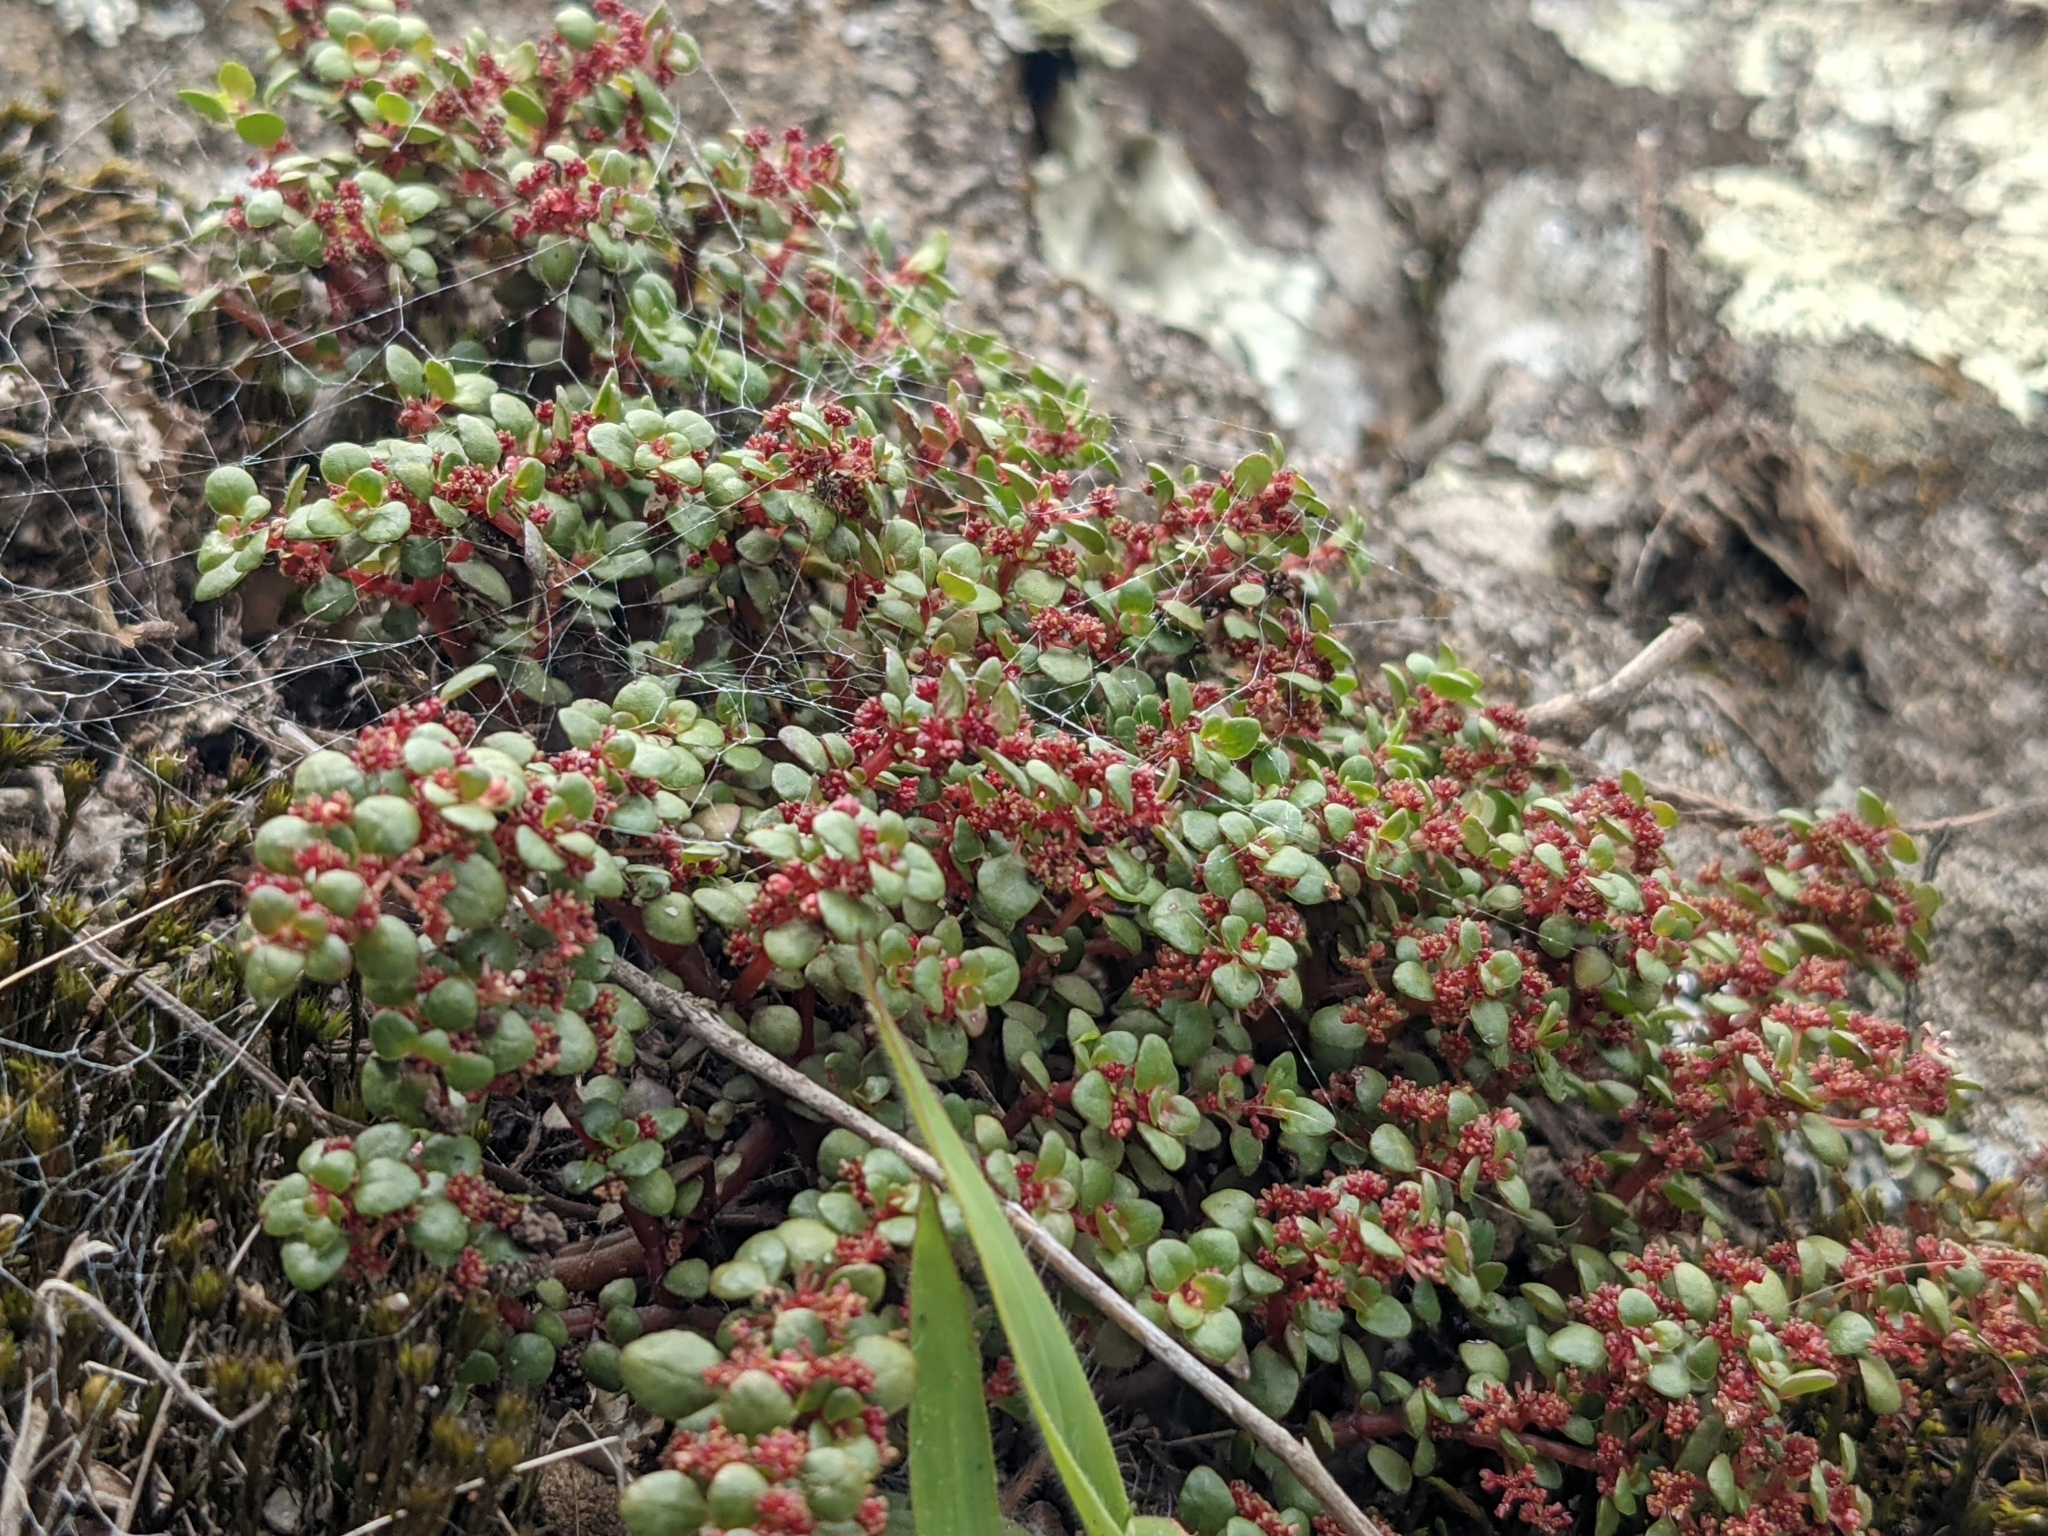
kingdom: Plantae
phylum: Tracheophyta
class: Magnoliopsida
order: Rosales
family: Urticaceae
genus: Pilea
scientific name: Pilea serpyllacea
